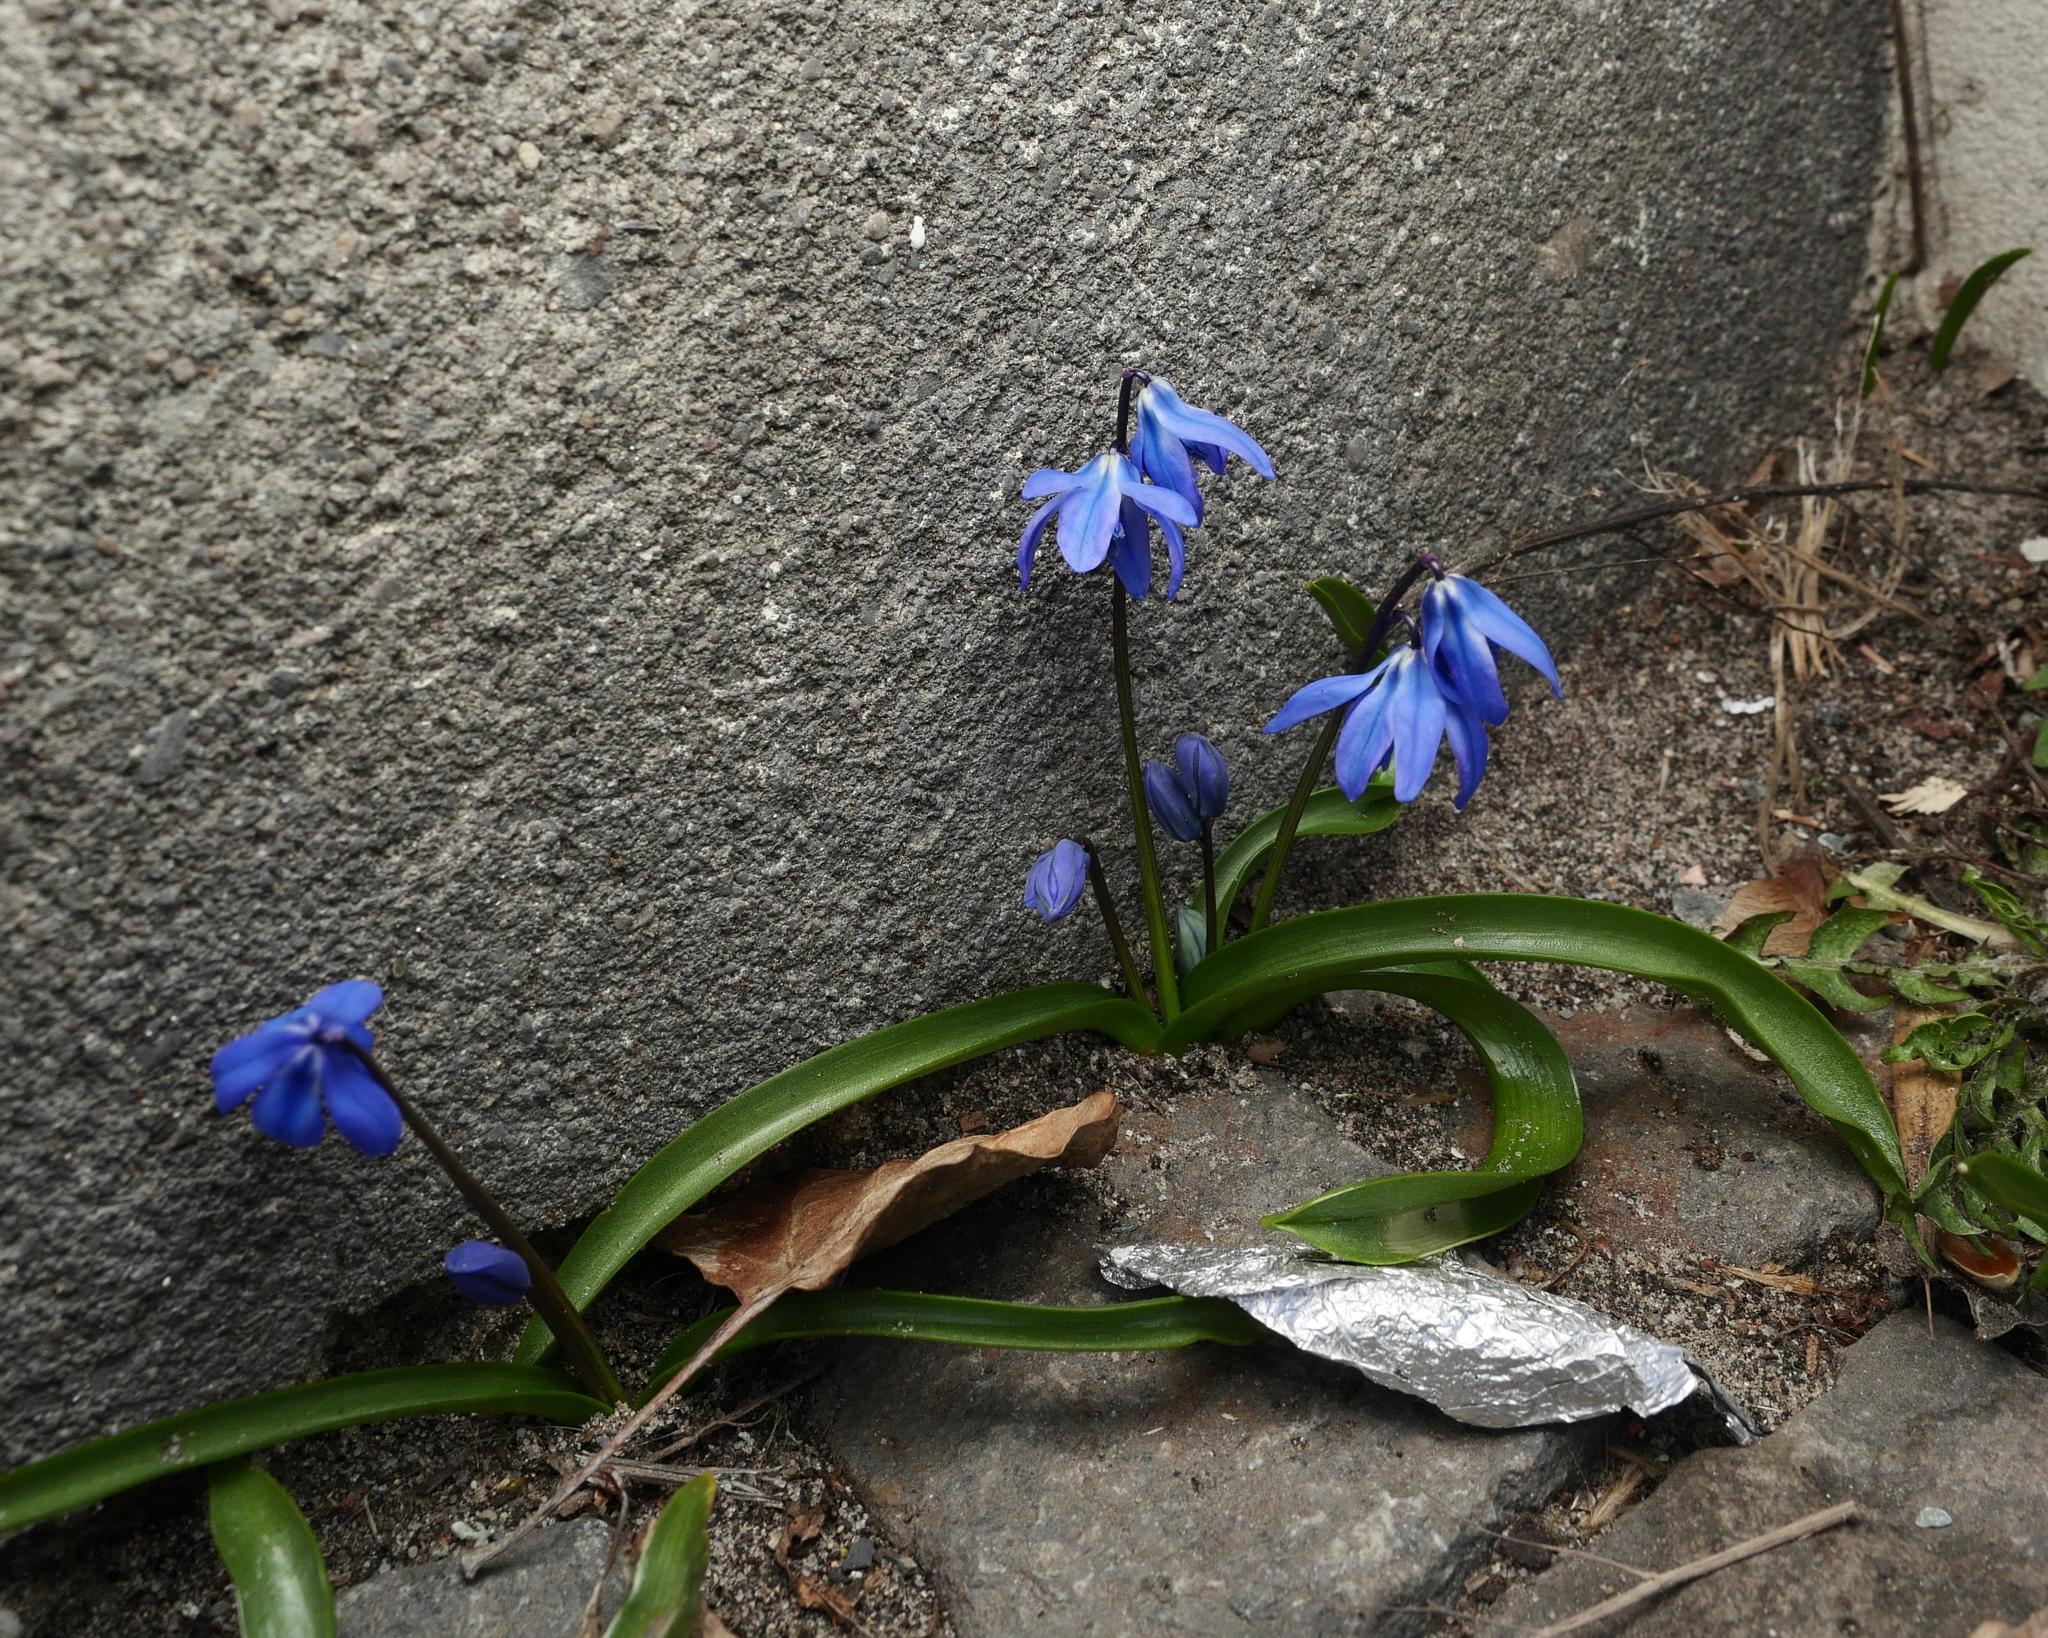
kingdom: Plantae
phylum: Tracheophyta
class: Liliopsida
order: Asparagales
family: Asparagaceae
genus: Scilla
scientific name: Scilla siberica
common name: Siberian squill
